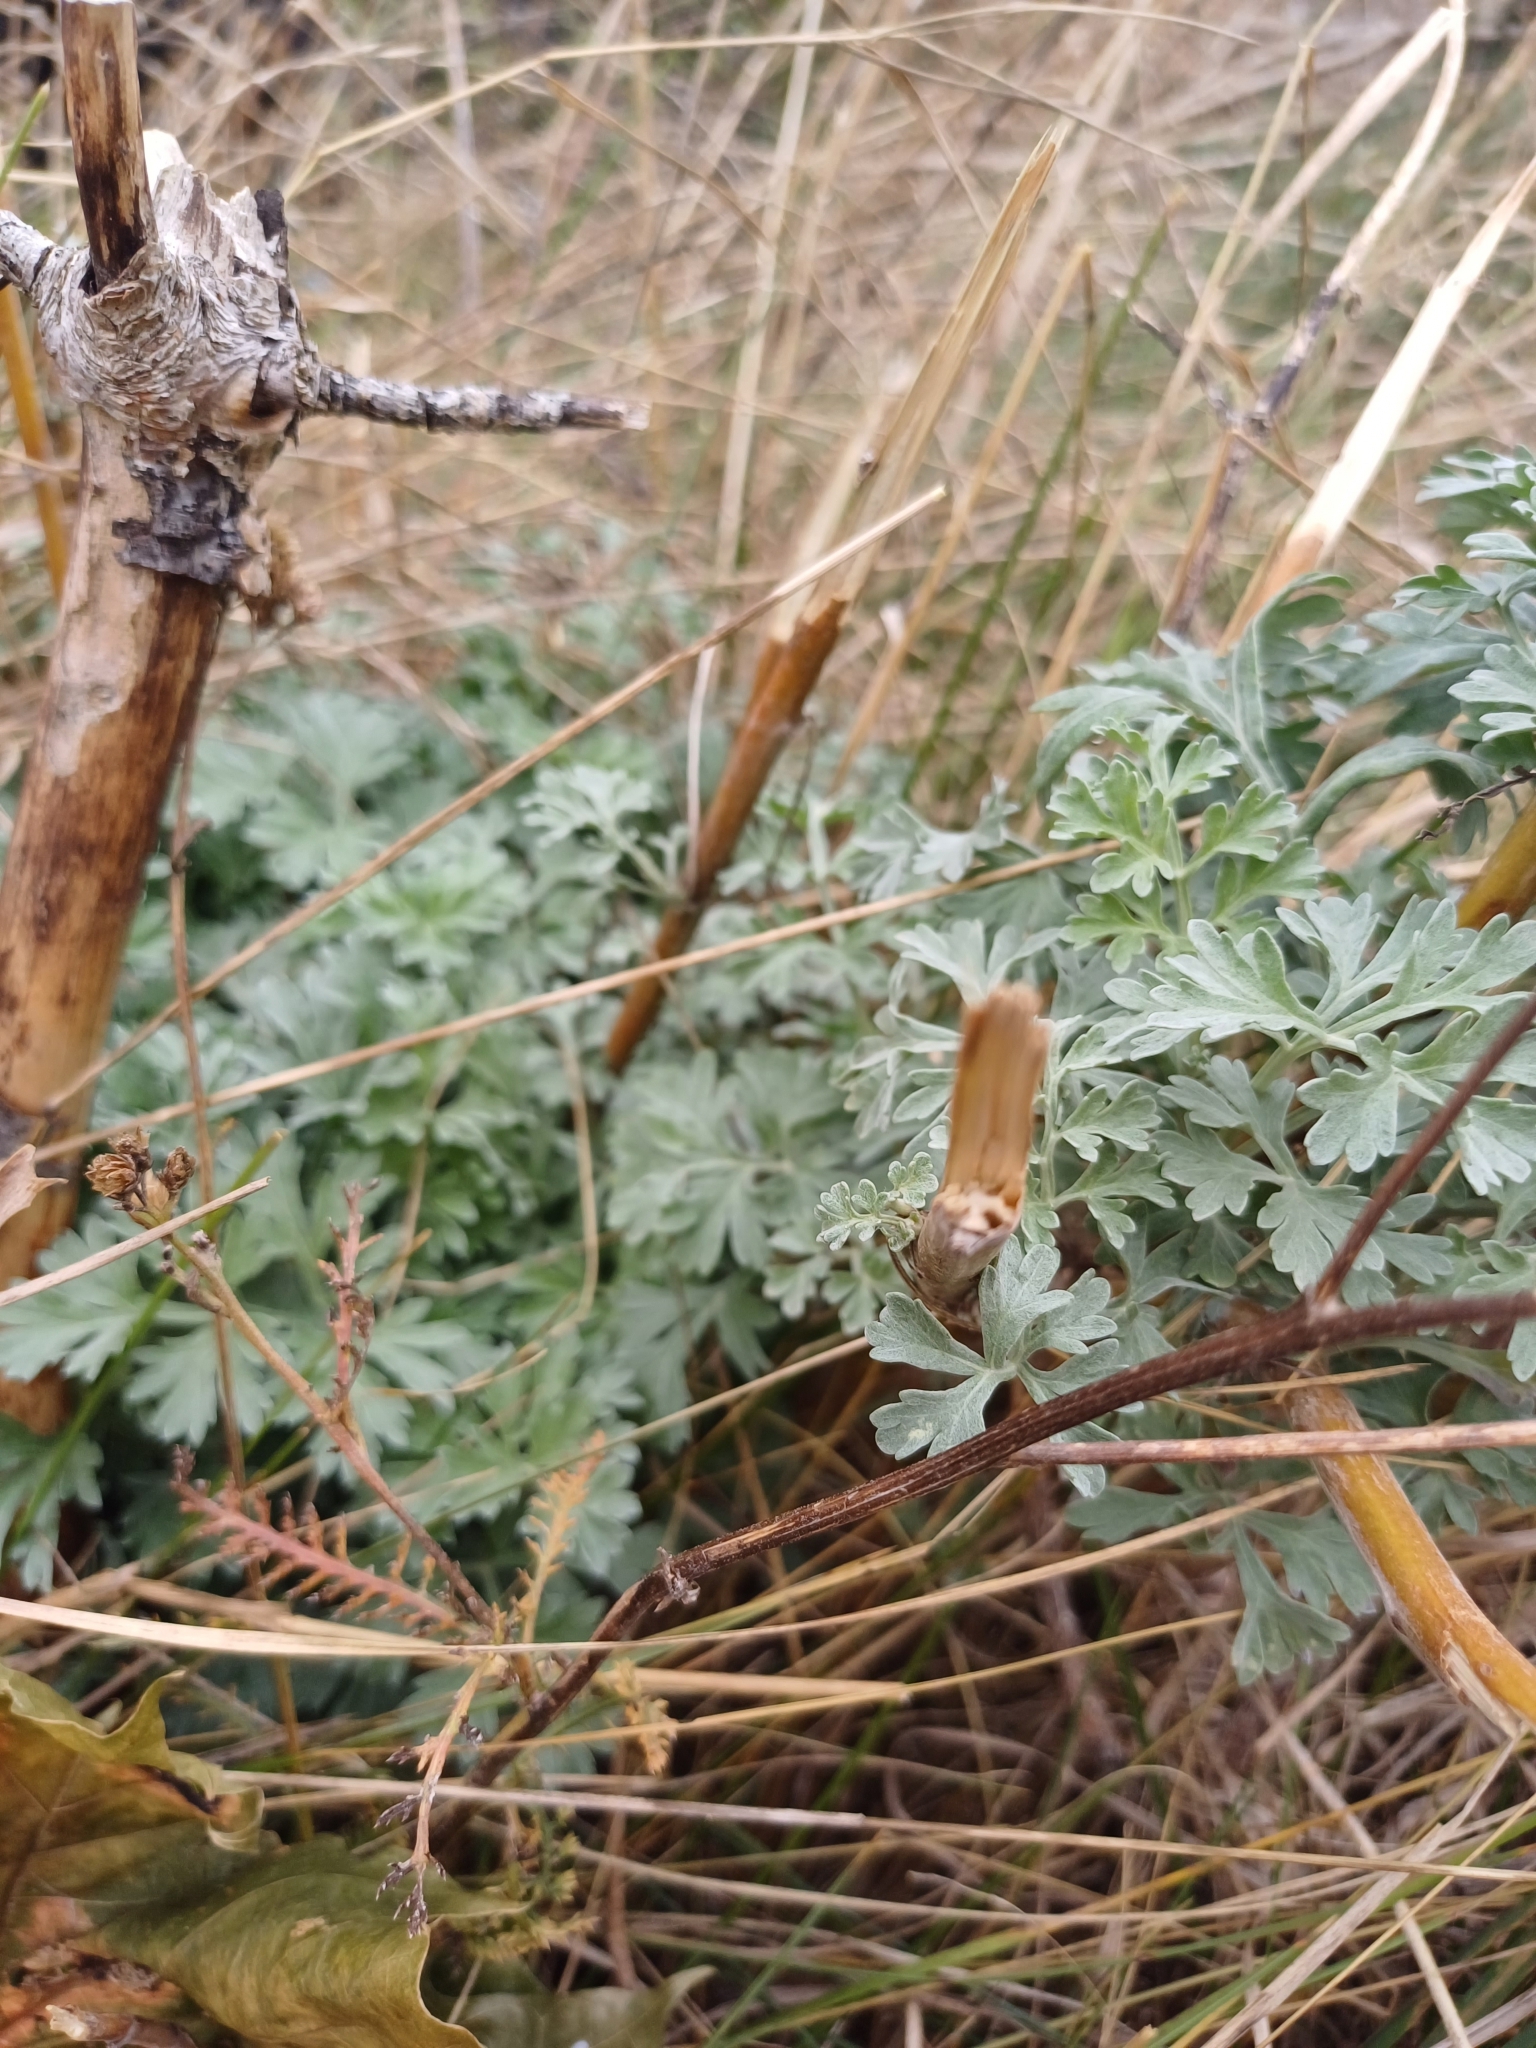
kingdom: Plantae
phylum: Tracheophyta
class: Magnoliopsida
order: Asterales
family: Asteraceae
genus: Artemisia
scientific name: Artemisia absinthium
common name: Wormwood
